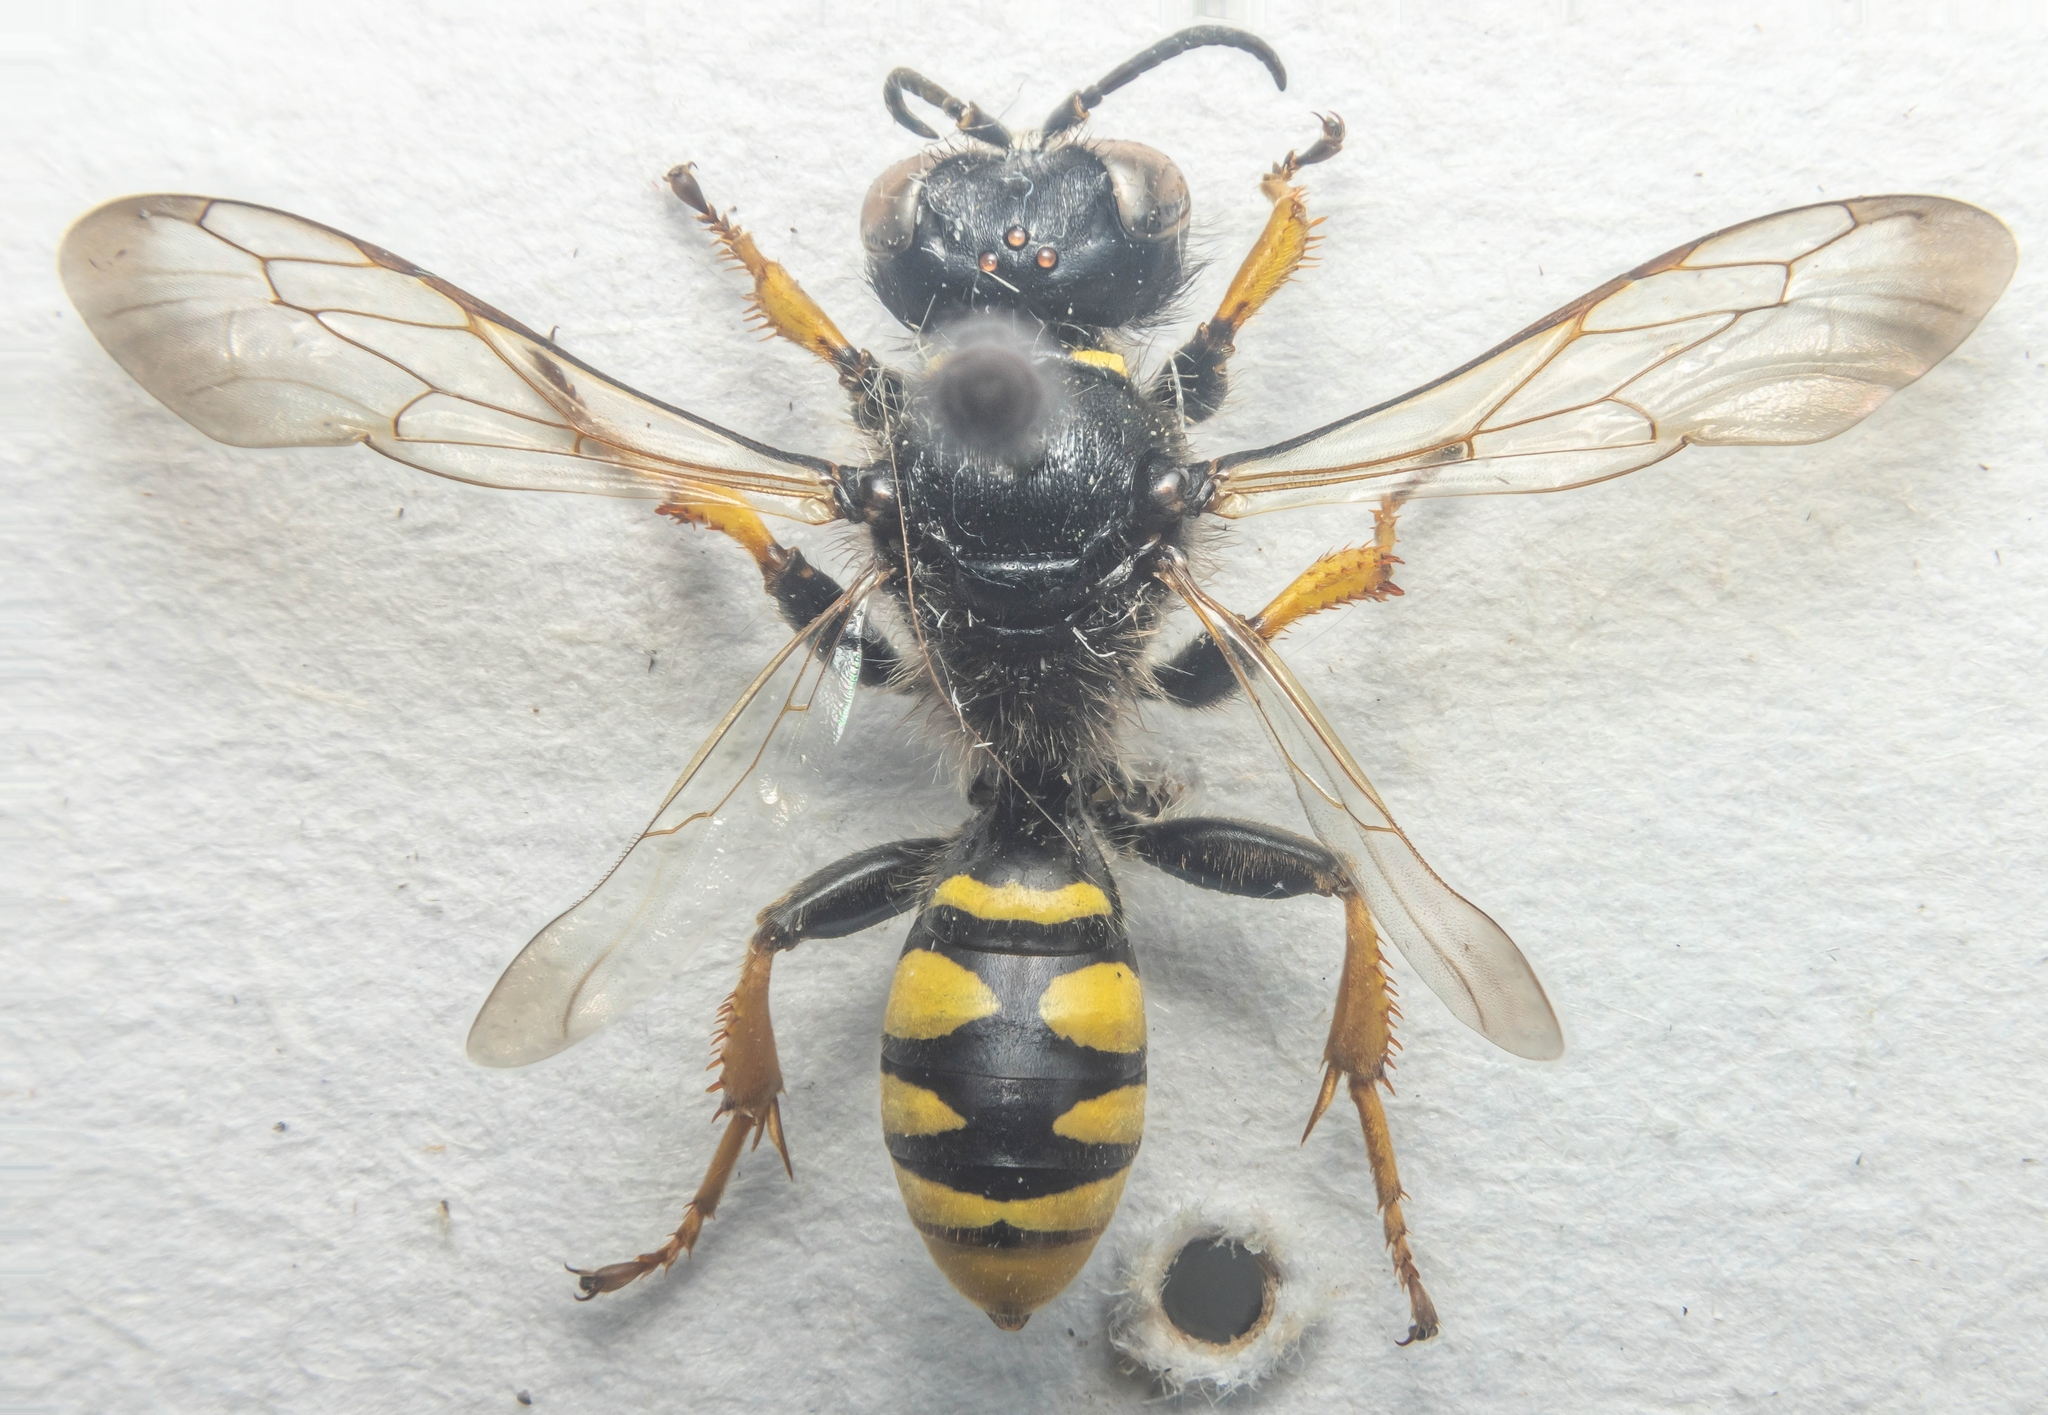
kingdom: Animalia
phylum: Arthropoda
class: Insecta
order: Hymenoptera
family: Crabronidae
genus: Crabro
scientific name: Crabro cribrarius
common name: Slender bodied digger wasp
